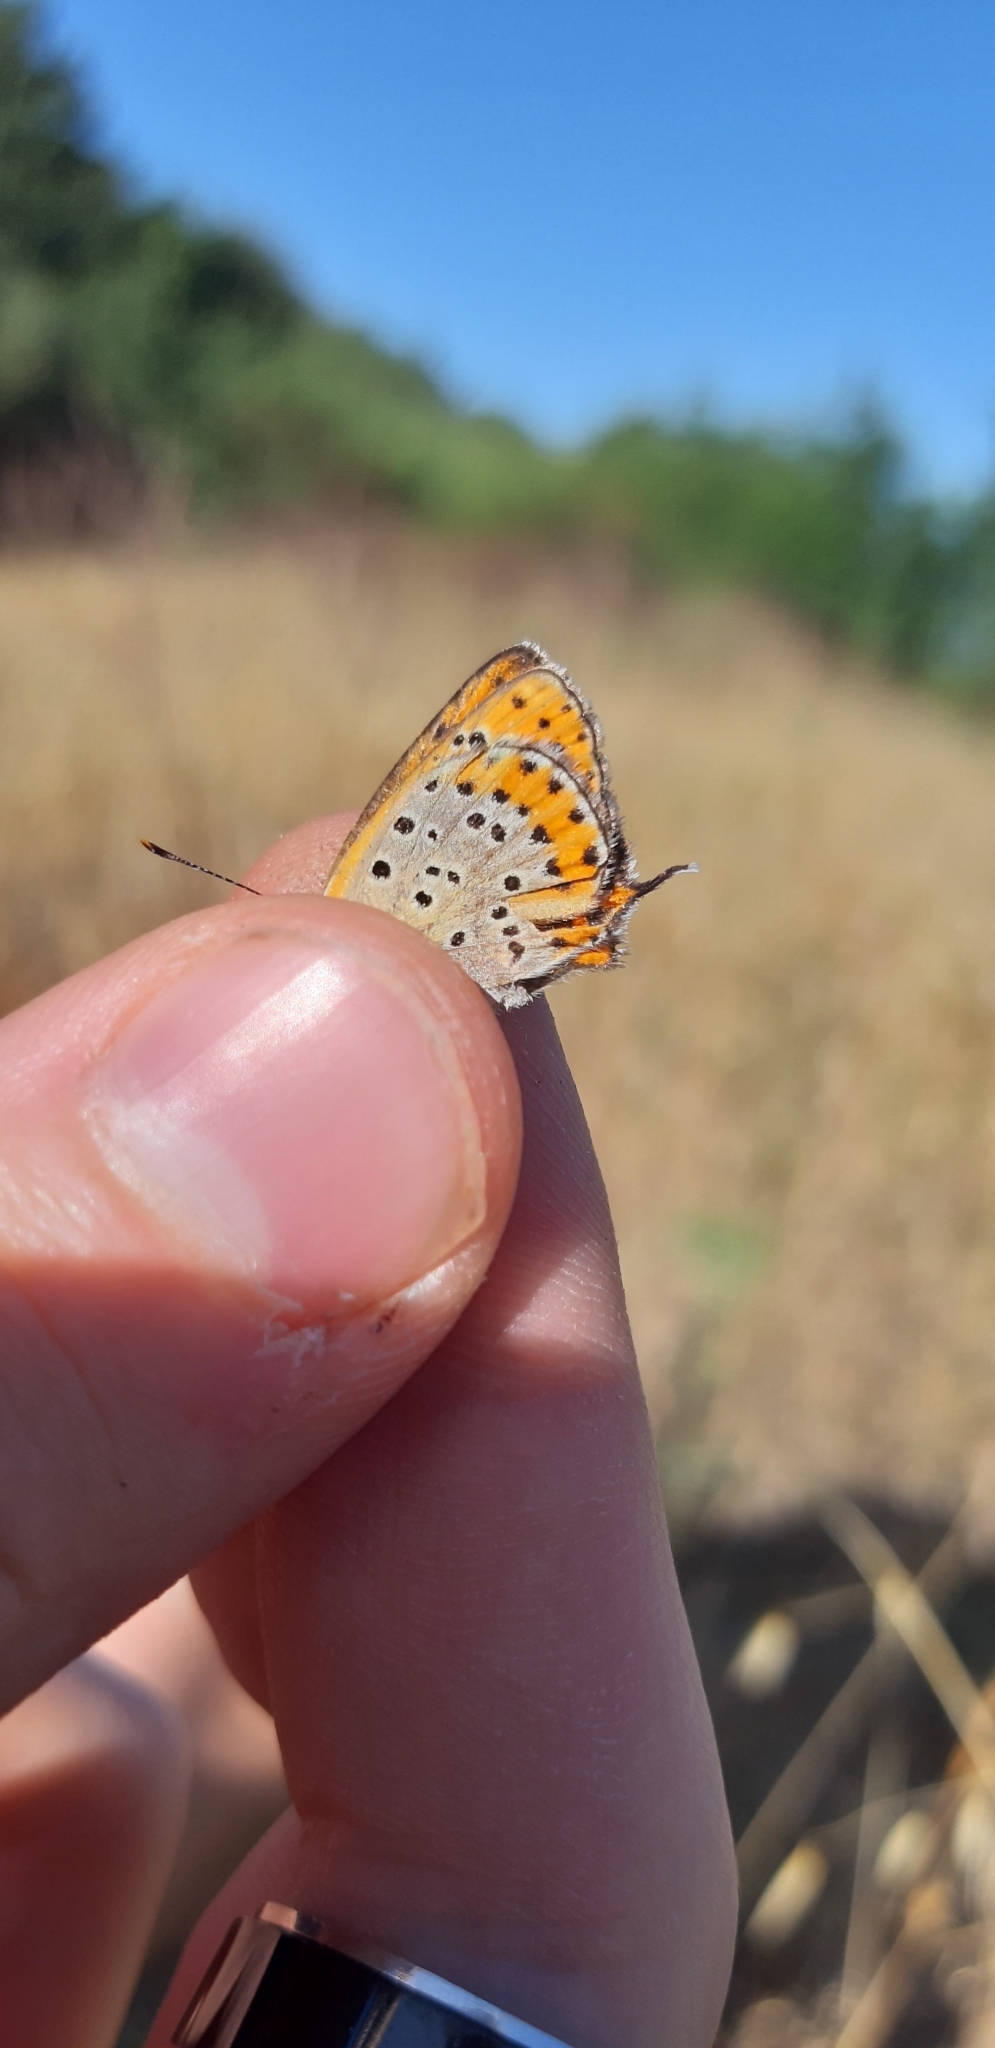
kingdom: Animalia
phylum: Arthropoda
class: Insecta
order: Lepidoptera
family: Lycaenidae
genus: Thersamonia
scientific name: Thersamonia thersamon
